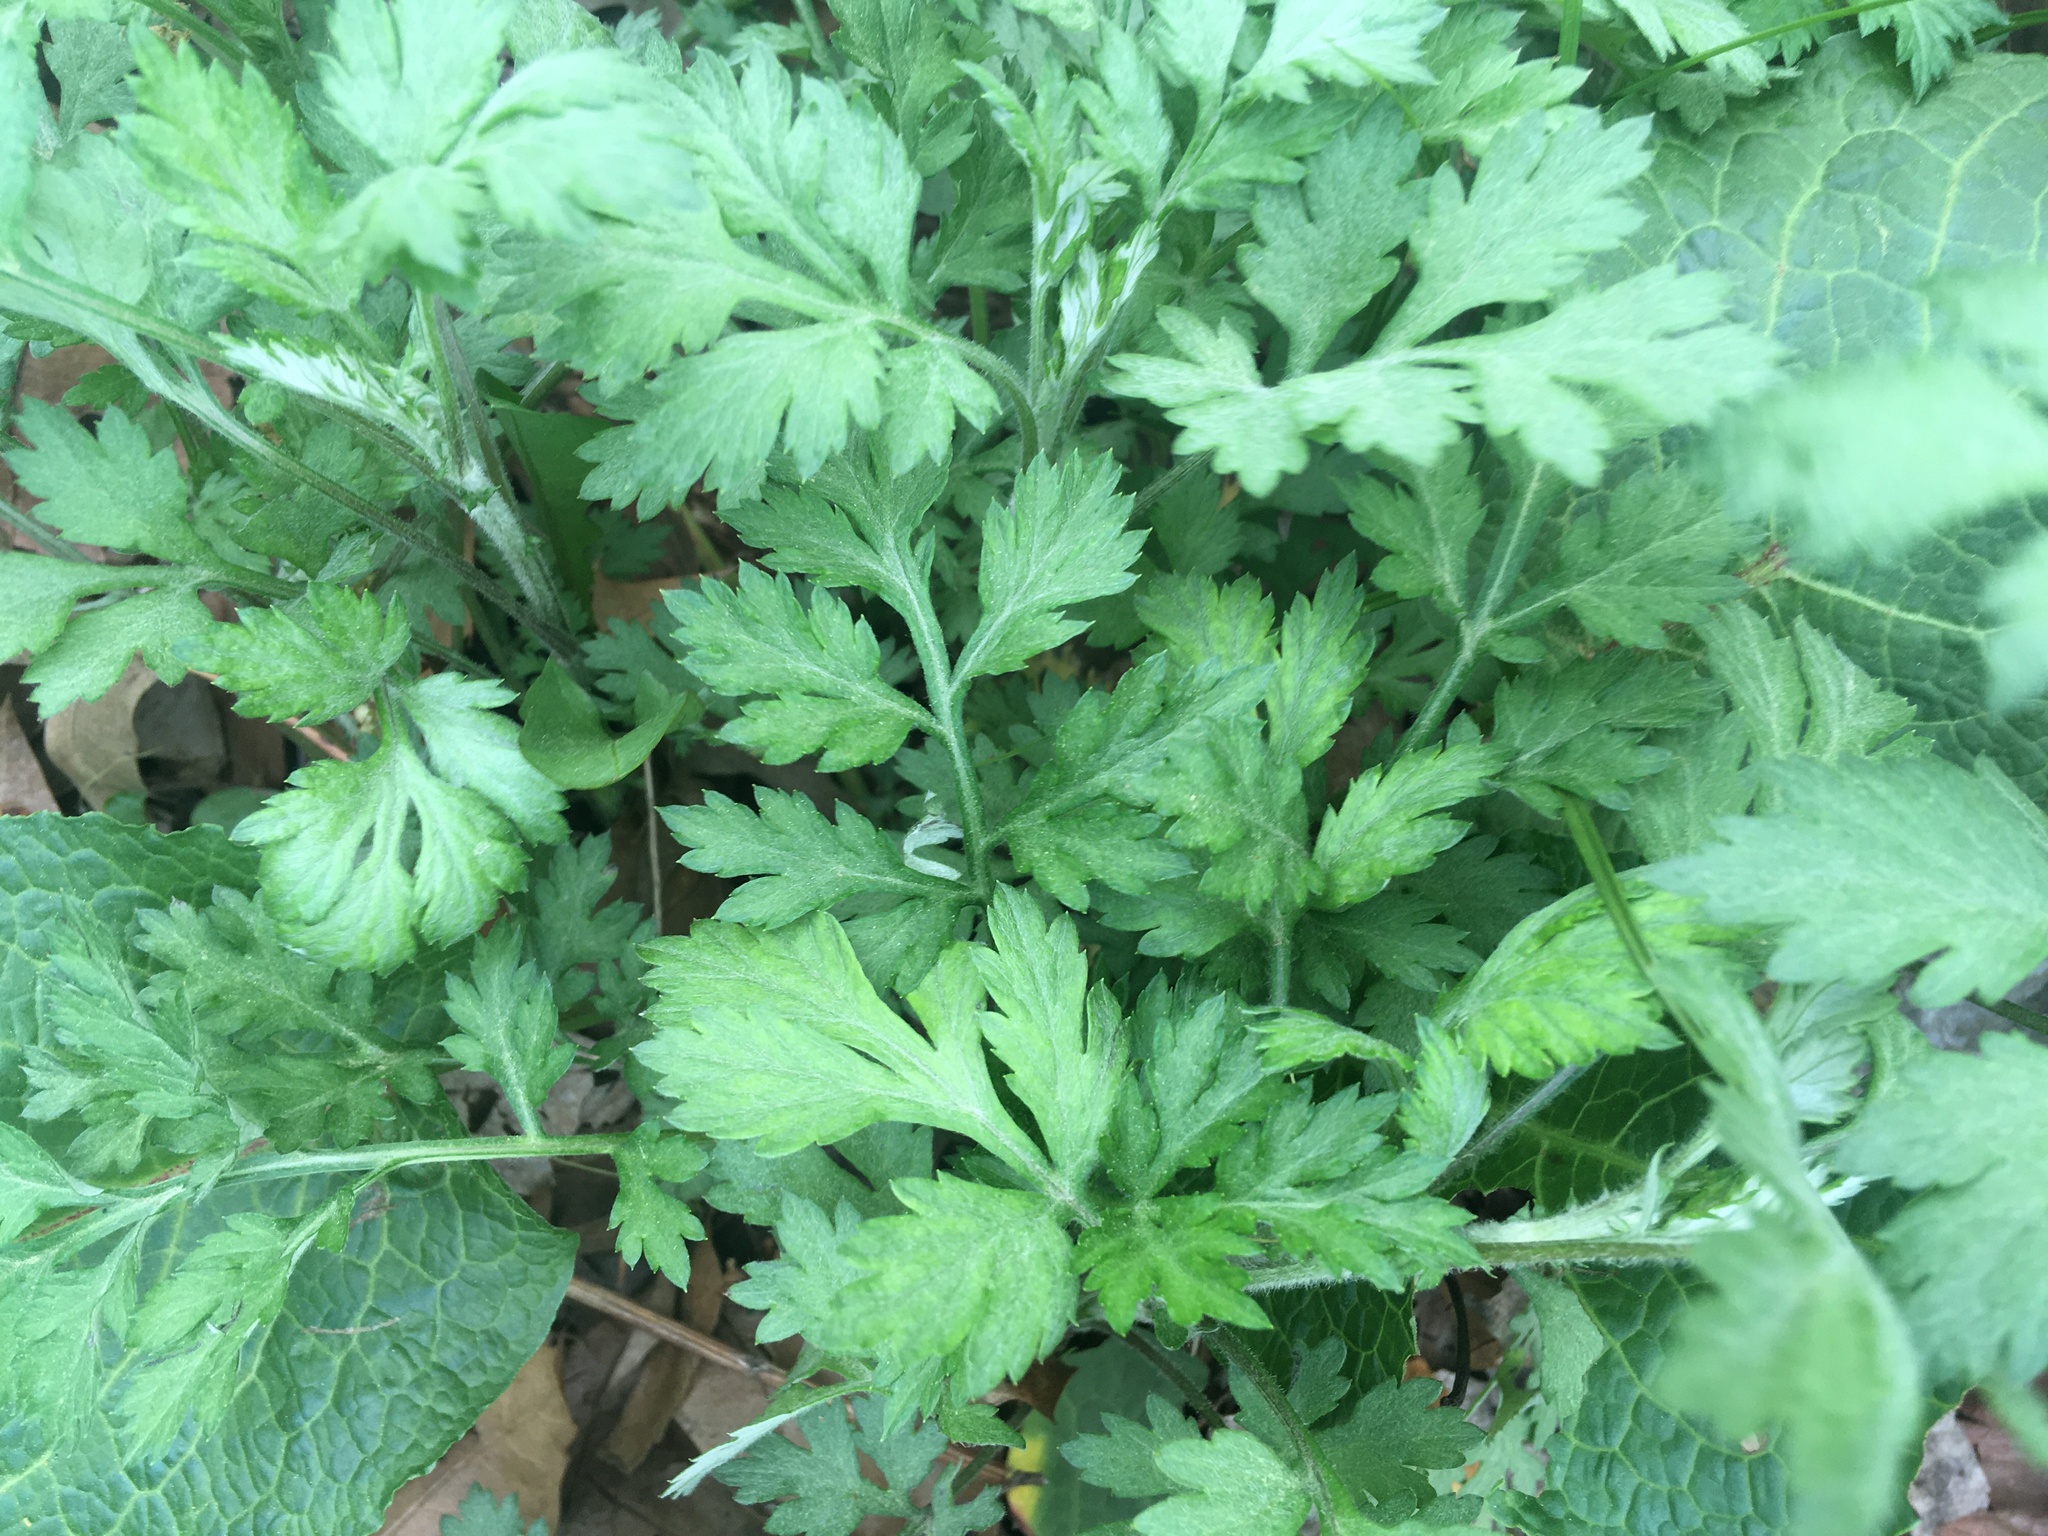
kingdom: Plantae
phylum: Tracheophyta
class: Magnoliopsida
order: Asterales
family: Asteraceae
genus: Artemisia
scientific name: Artemisia vulgaris
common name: Mugwort
